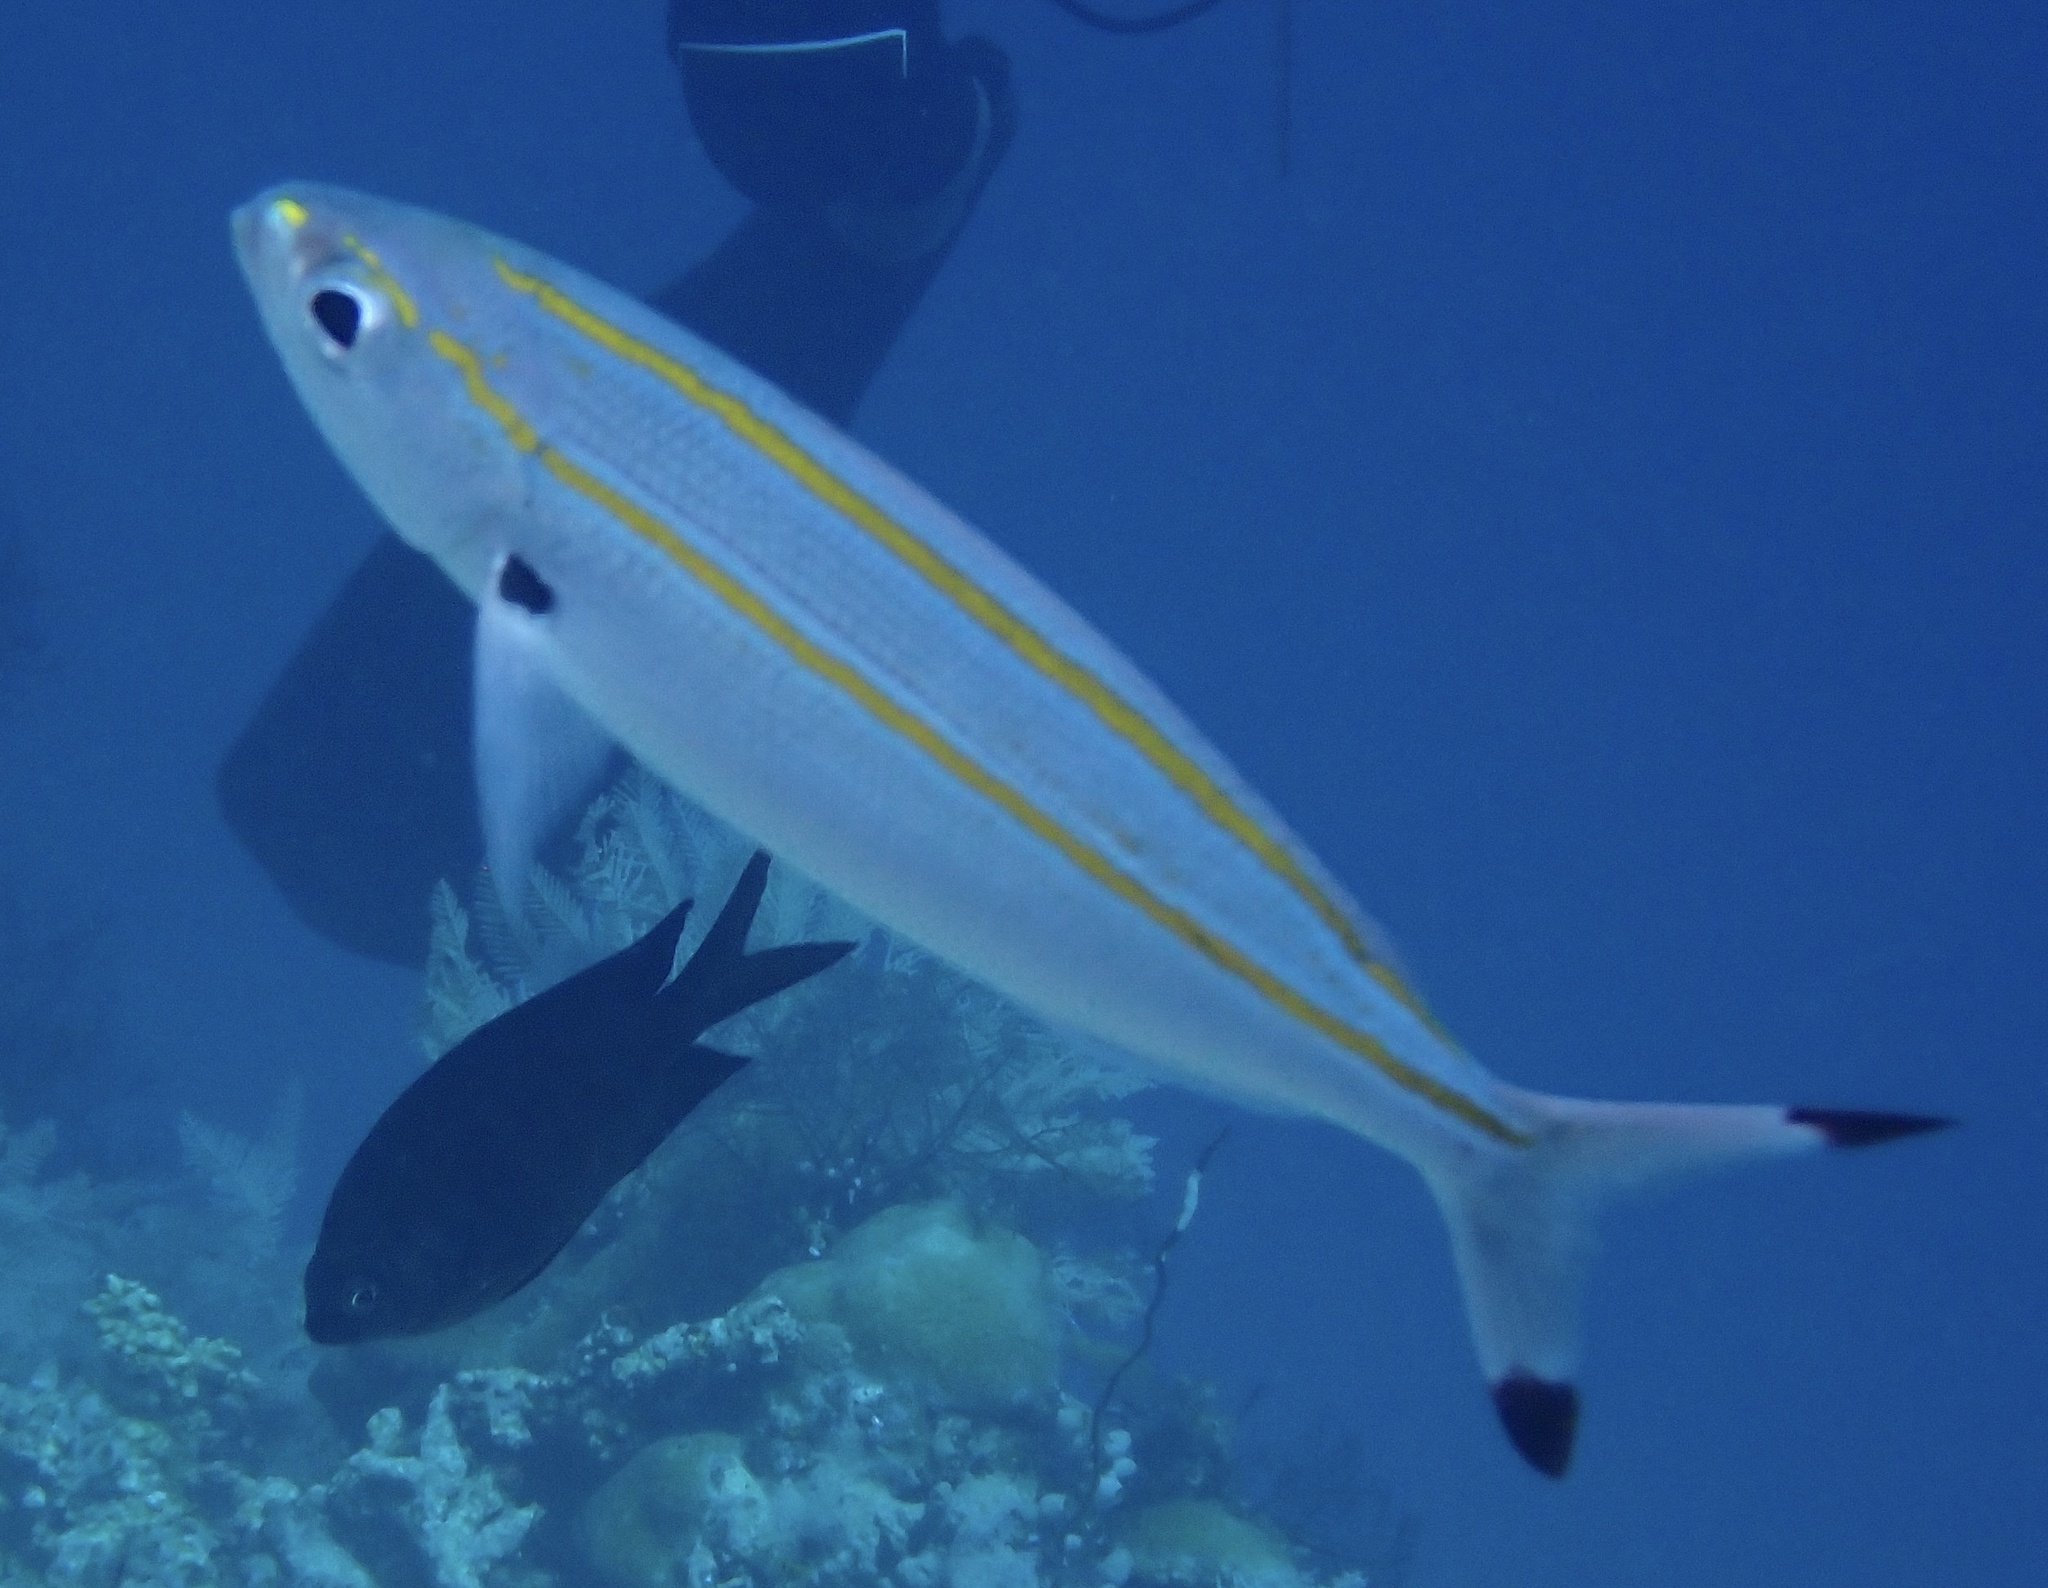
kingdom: Animalia
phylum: Chordata
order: Perciformes
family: Caesionidae
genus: Pterocaesio
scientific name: Pterocaesio digramma
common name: Double-lined fusilier
